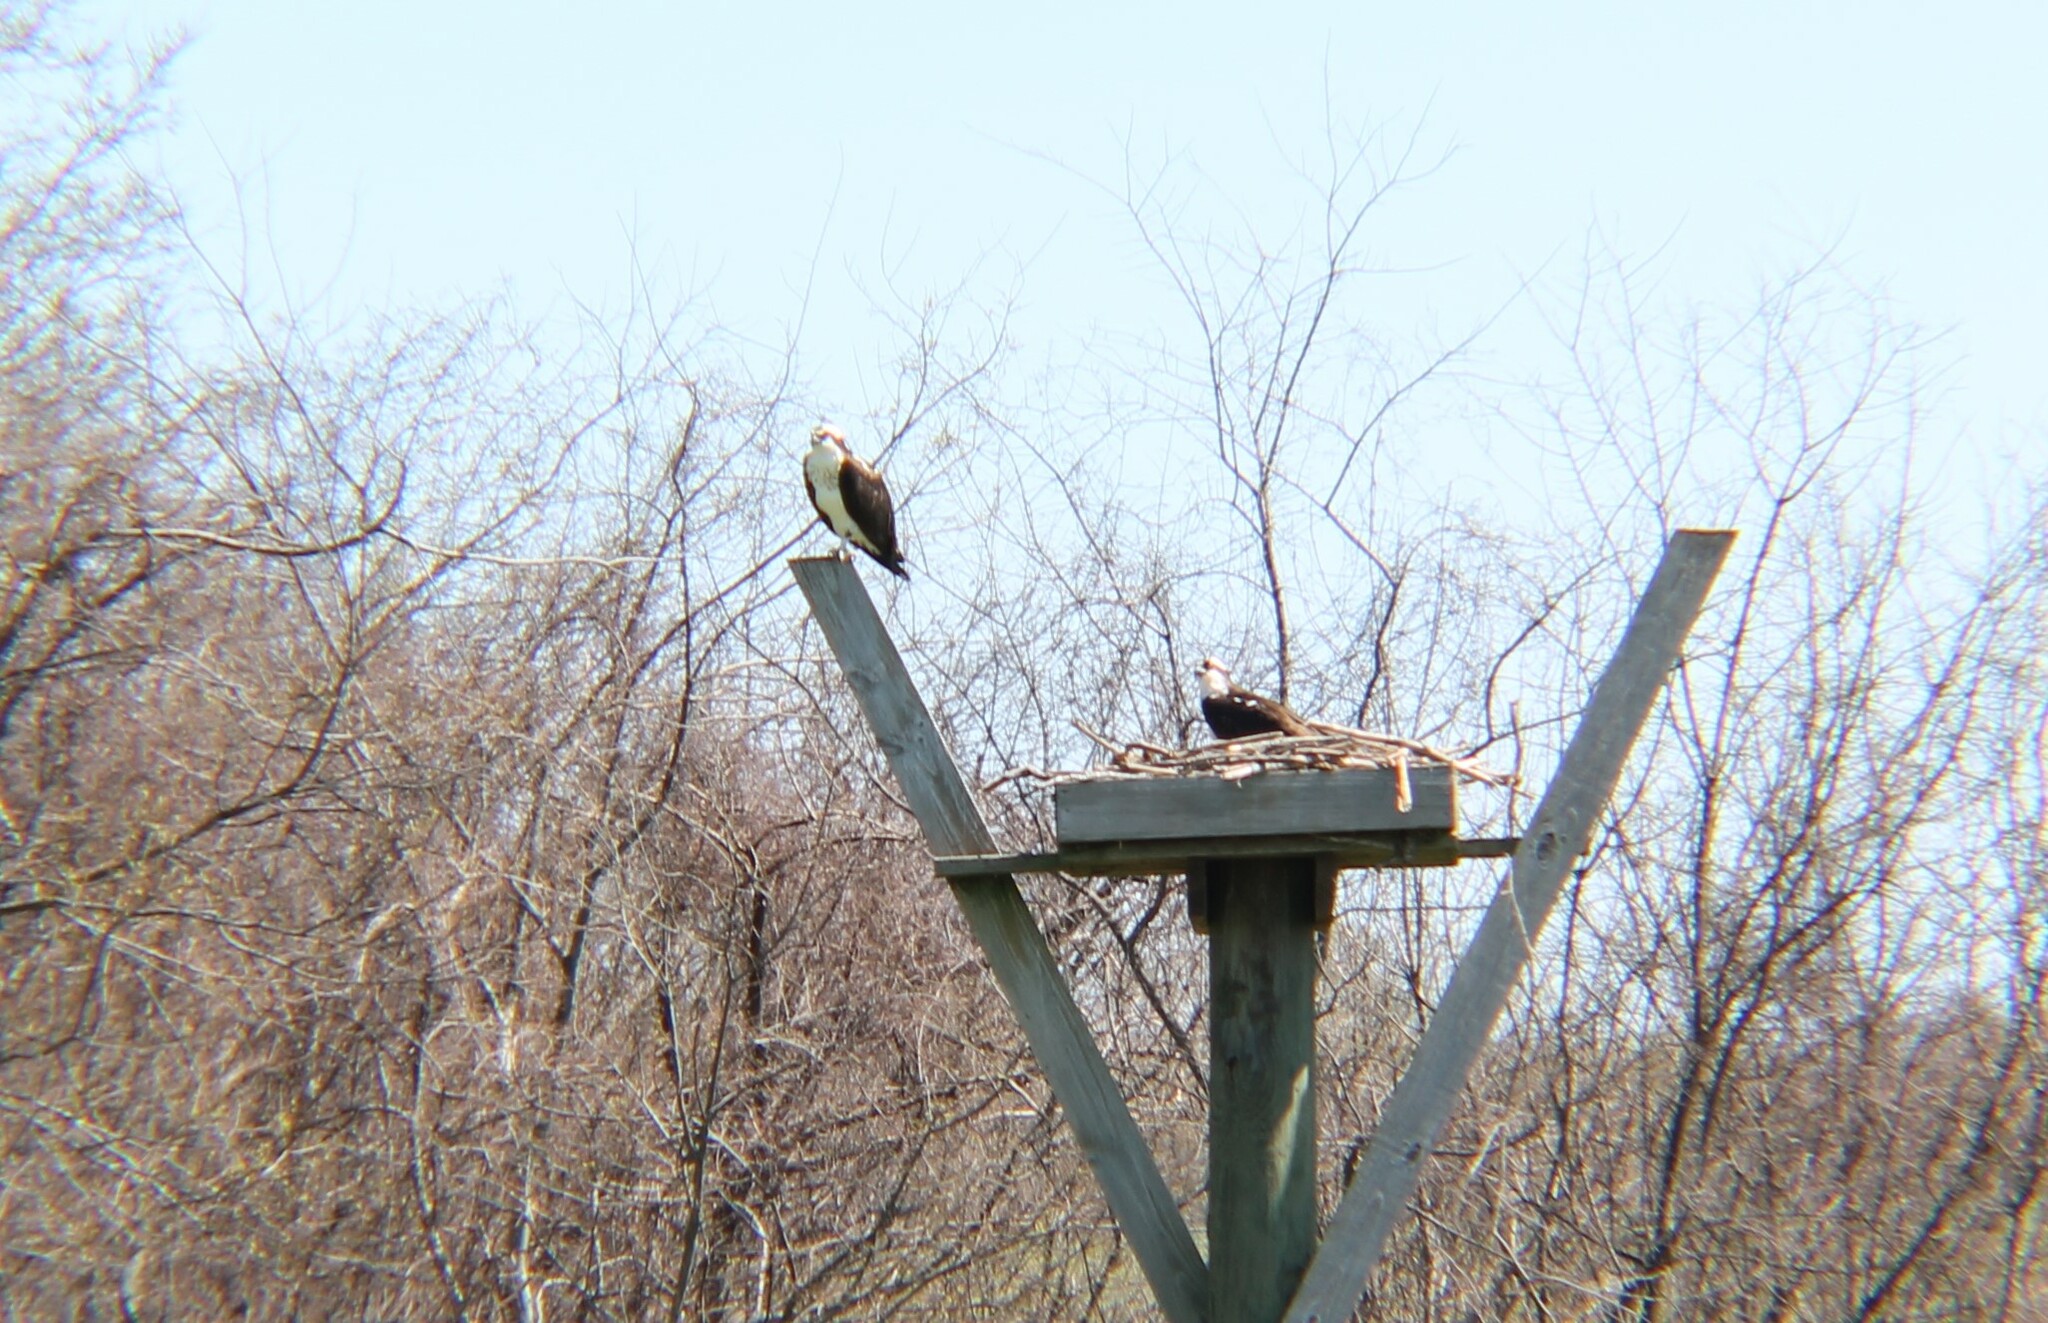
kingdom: Animalia
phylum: Chordata
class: Aves
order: Accipitriformes
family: Pandionidae
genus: Pandion
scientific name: Pandion haliaetus
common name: Osprey
